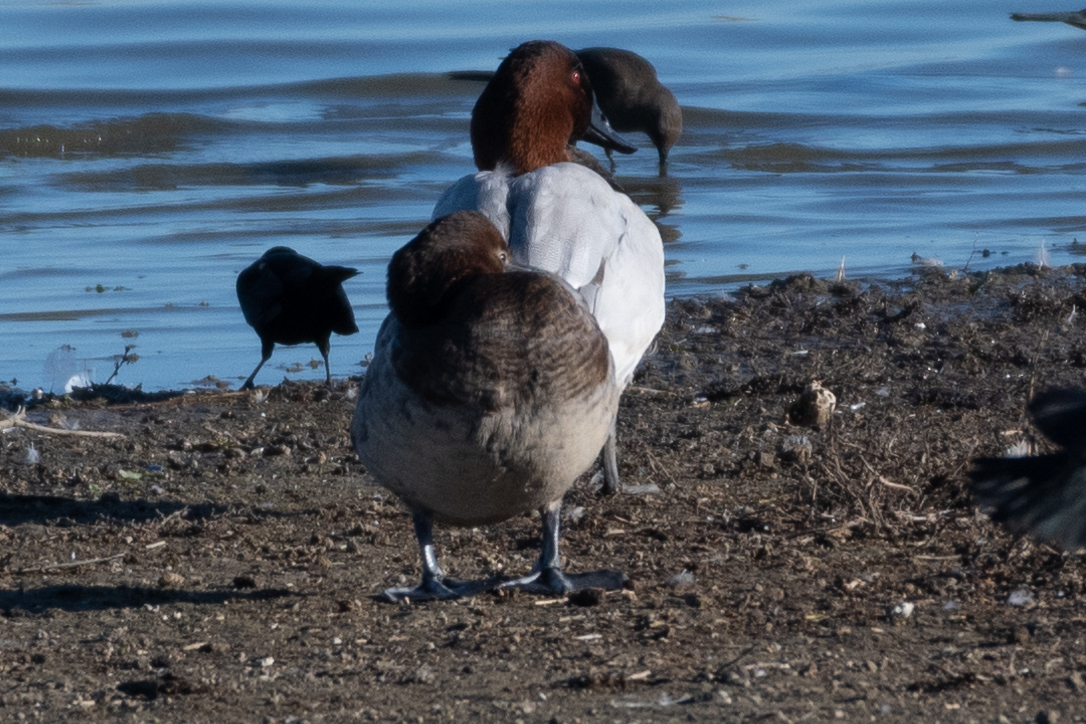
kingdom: Animalia
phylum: Chordata
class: Aves
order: Anseriformes
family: Anatidae
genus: Aythya
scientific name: Aythya valisineria
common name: Canvasback
